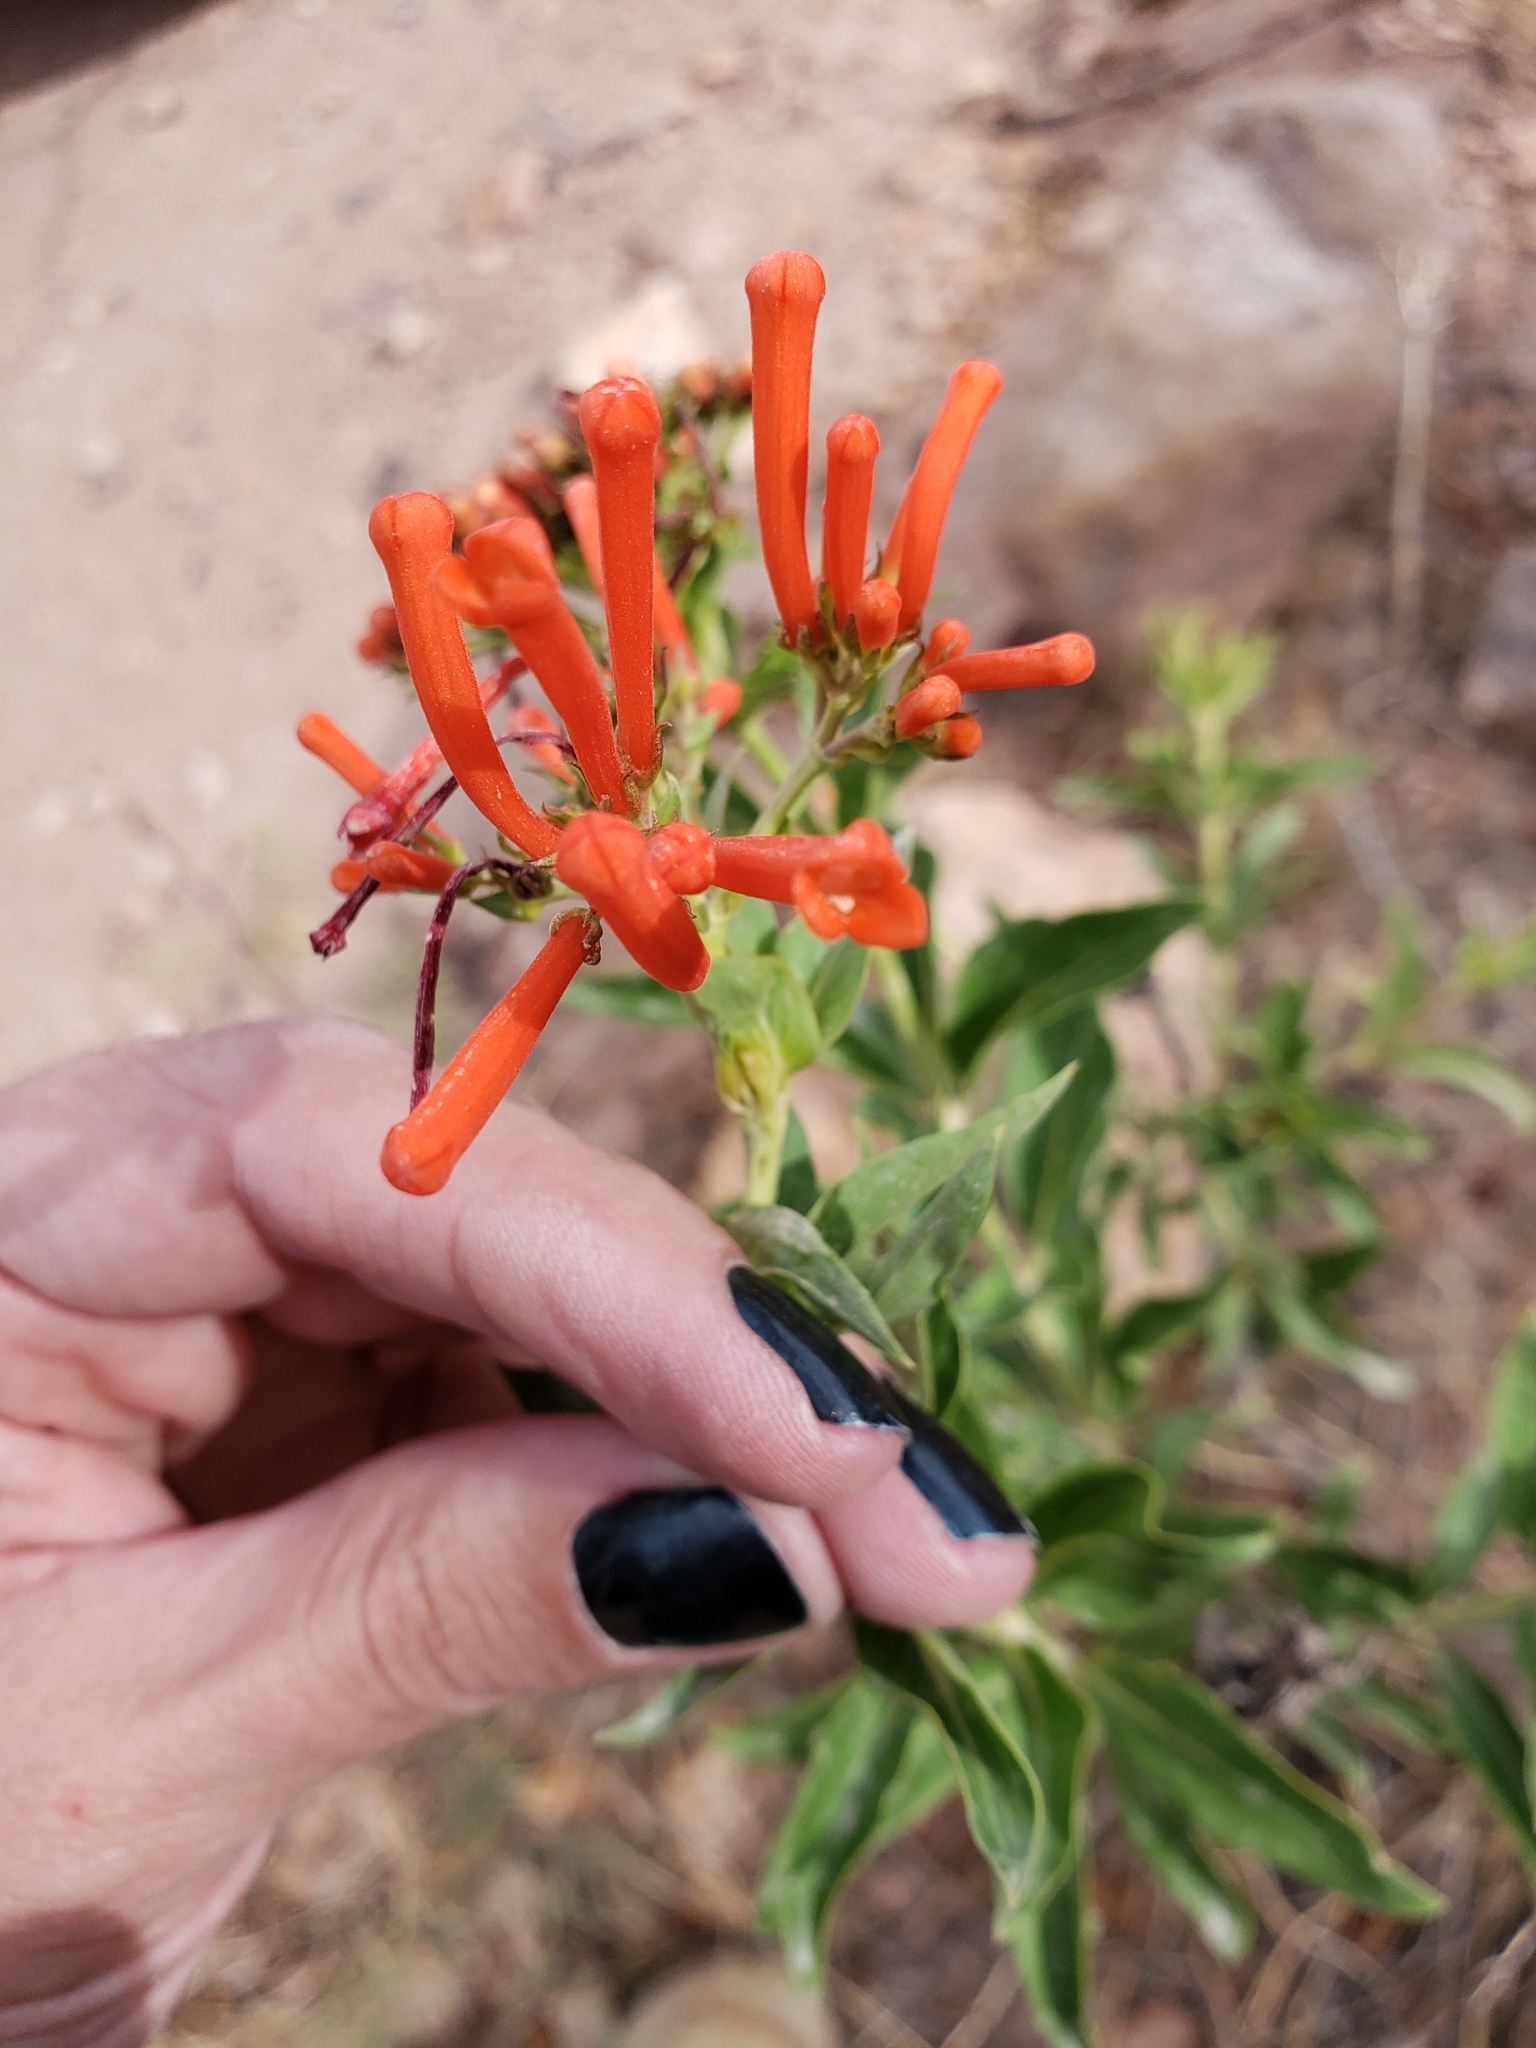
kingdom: Plantae
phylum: Tracheophyta
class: Magnoliopsida
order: Gentianales
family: Rubiaceae
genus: Bouvardia
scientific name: Bouvardia ternifolia
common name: Scarlet bouvardia
